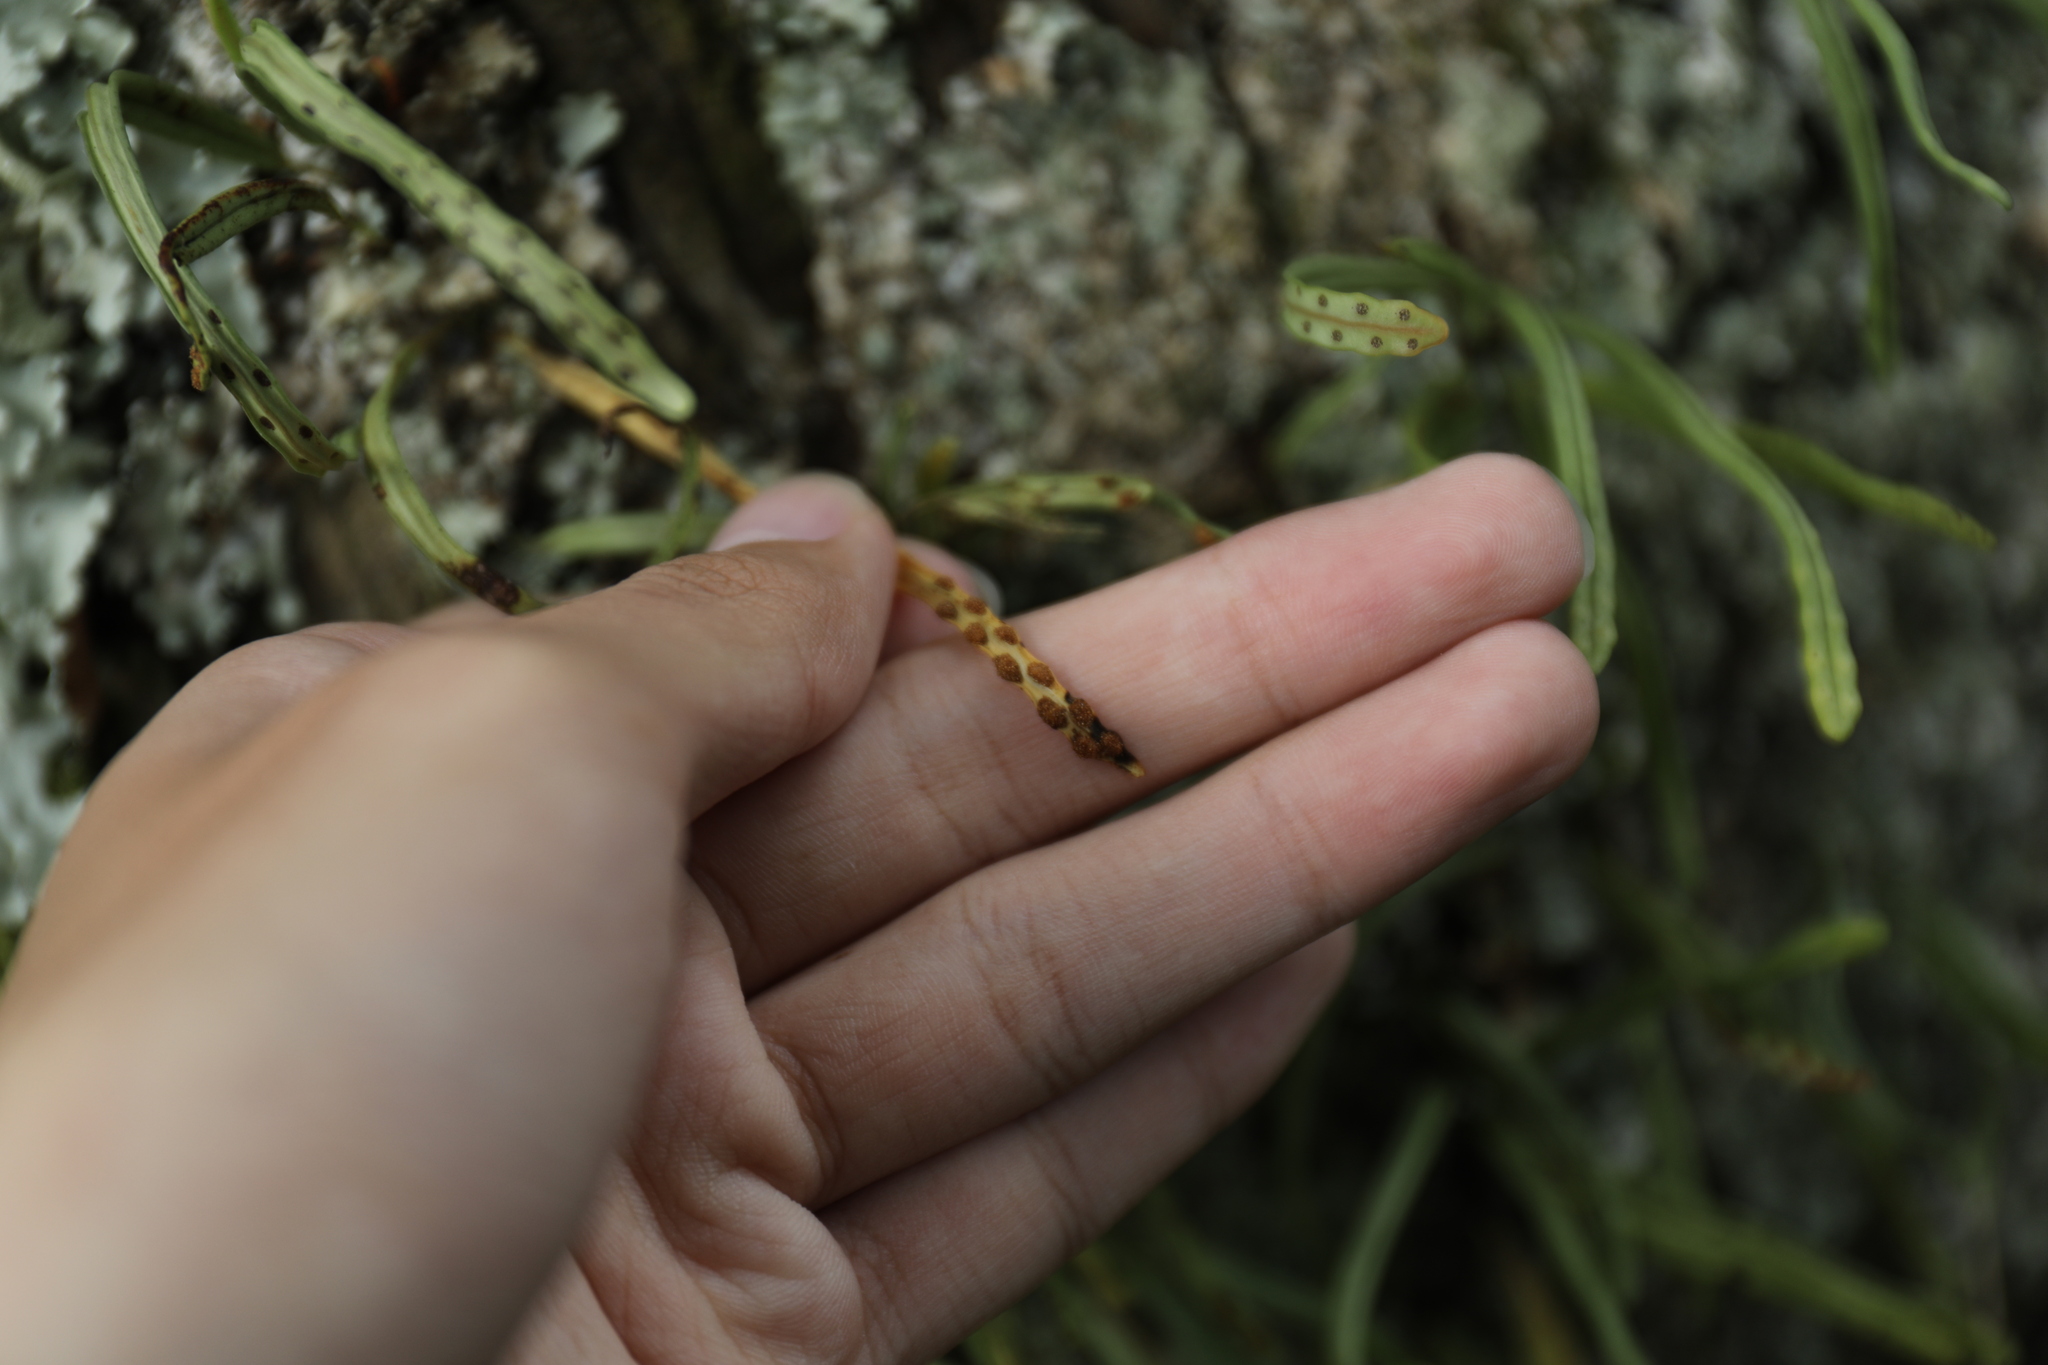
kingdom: Plantae
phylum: Tracheophyta
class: Polypodiopsida
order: Polypodiales
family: Polypodiaceae
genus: Lepisorus
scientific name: Lepisorus monilisorus
